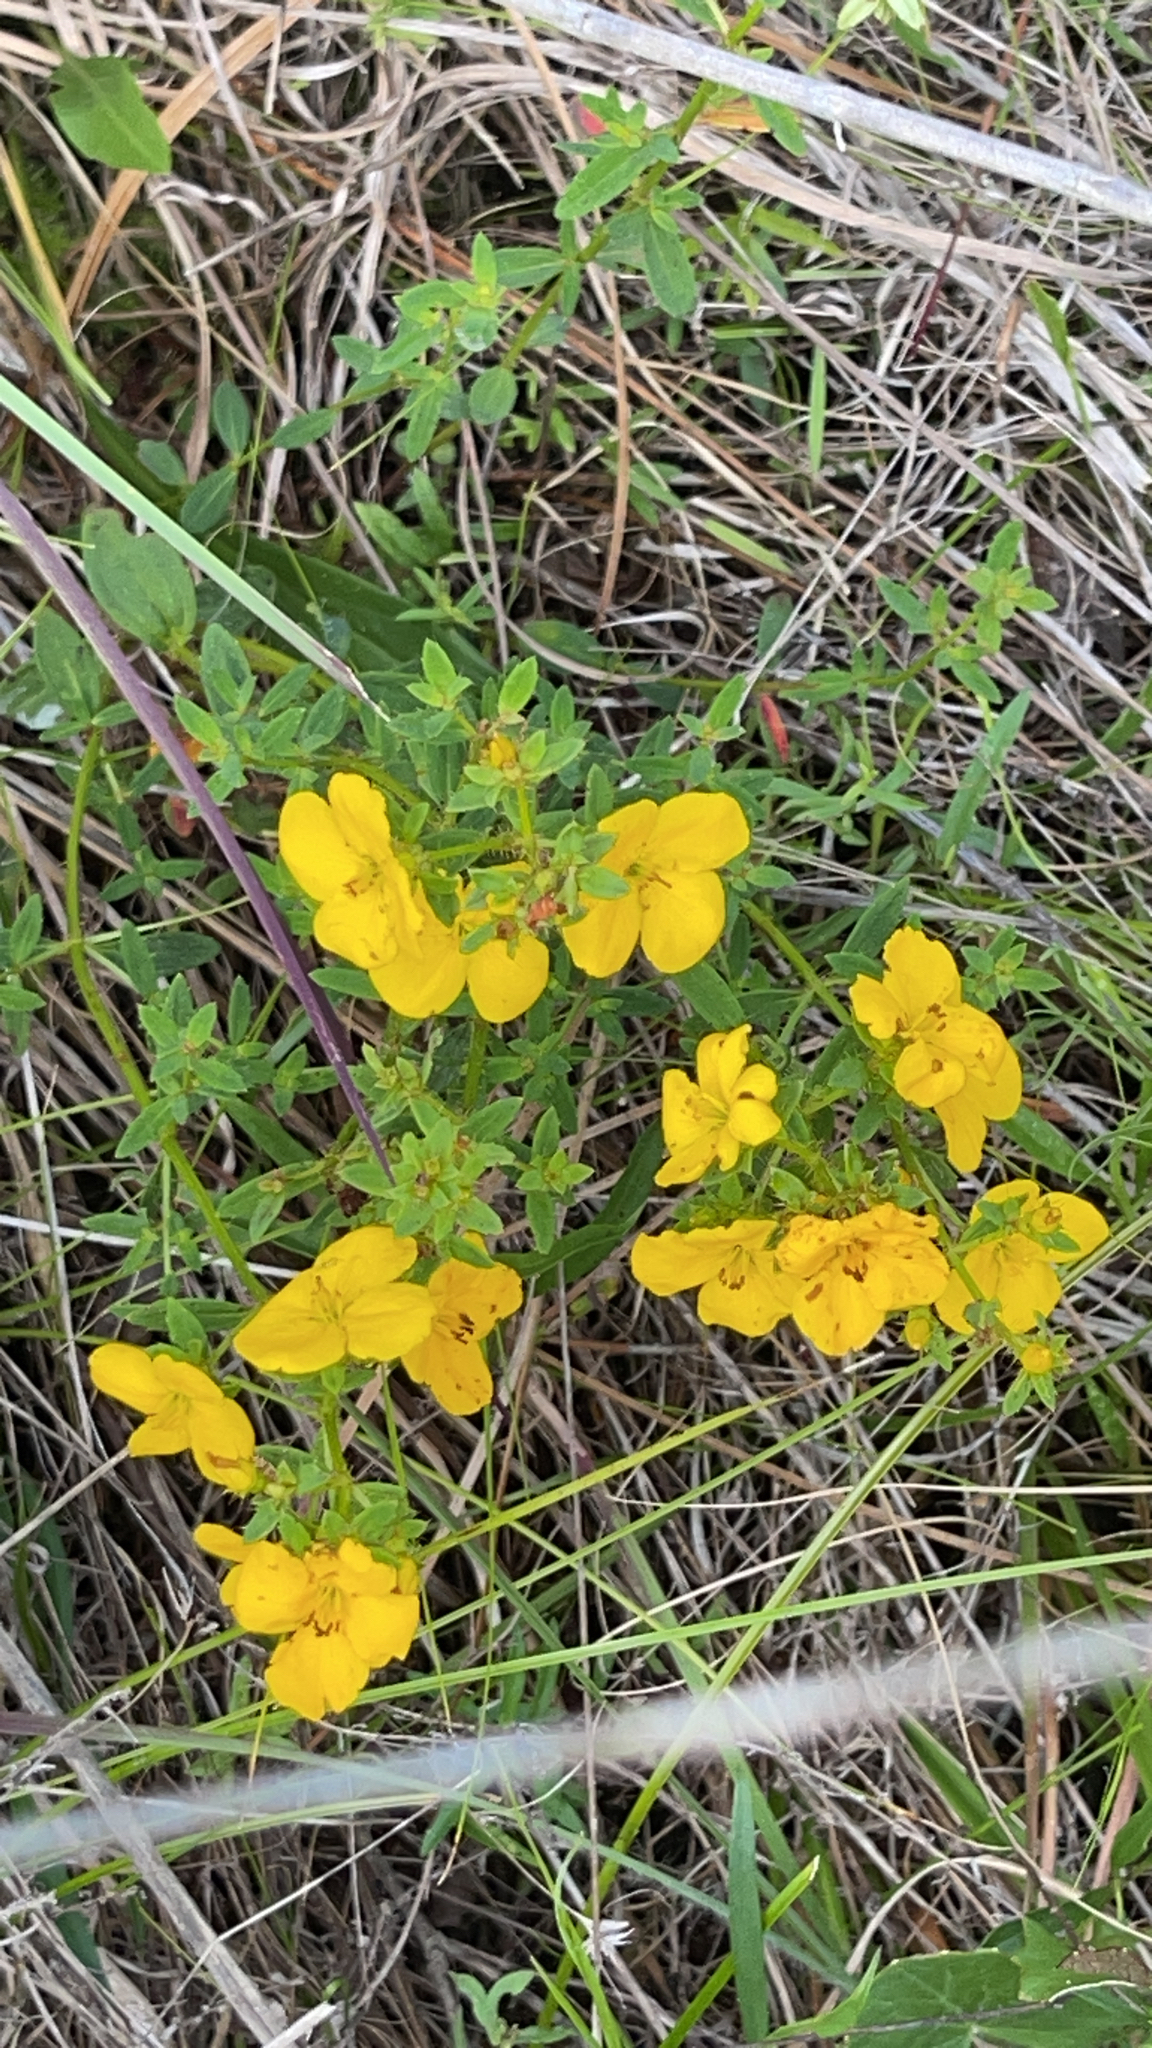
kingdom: Plantae
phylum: Tracheophyta
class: Magnoliopsida
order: Myrtales
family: Melastomataceae
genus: Rhexia
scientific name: Rhexia lutea
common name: Golden meadow-beauty
